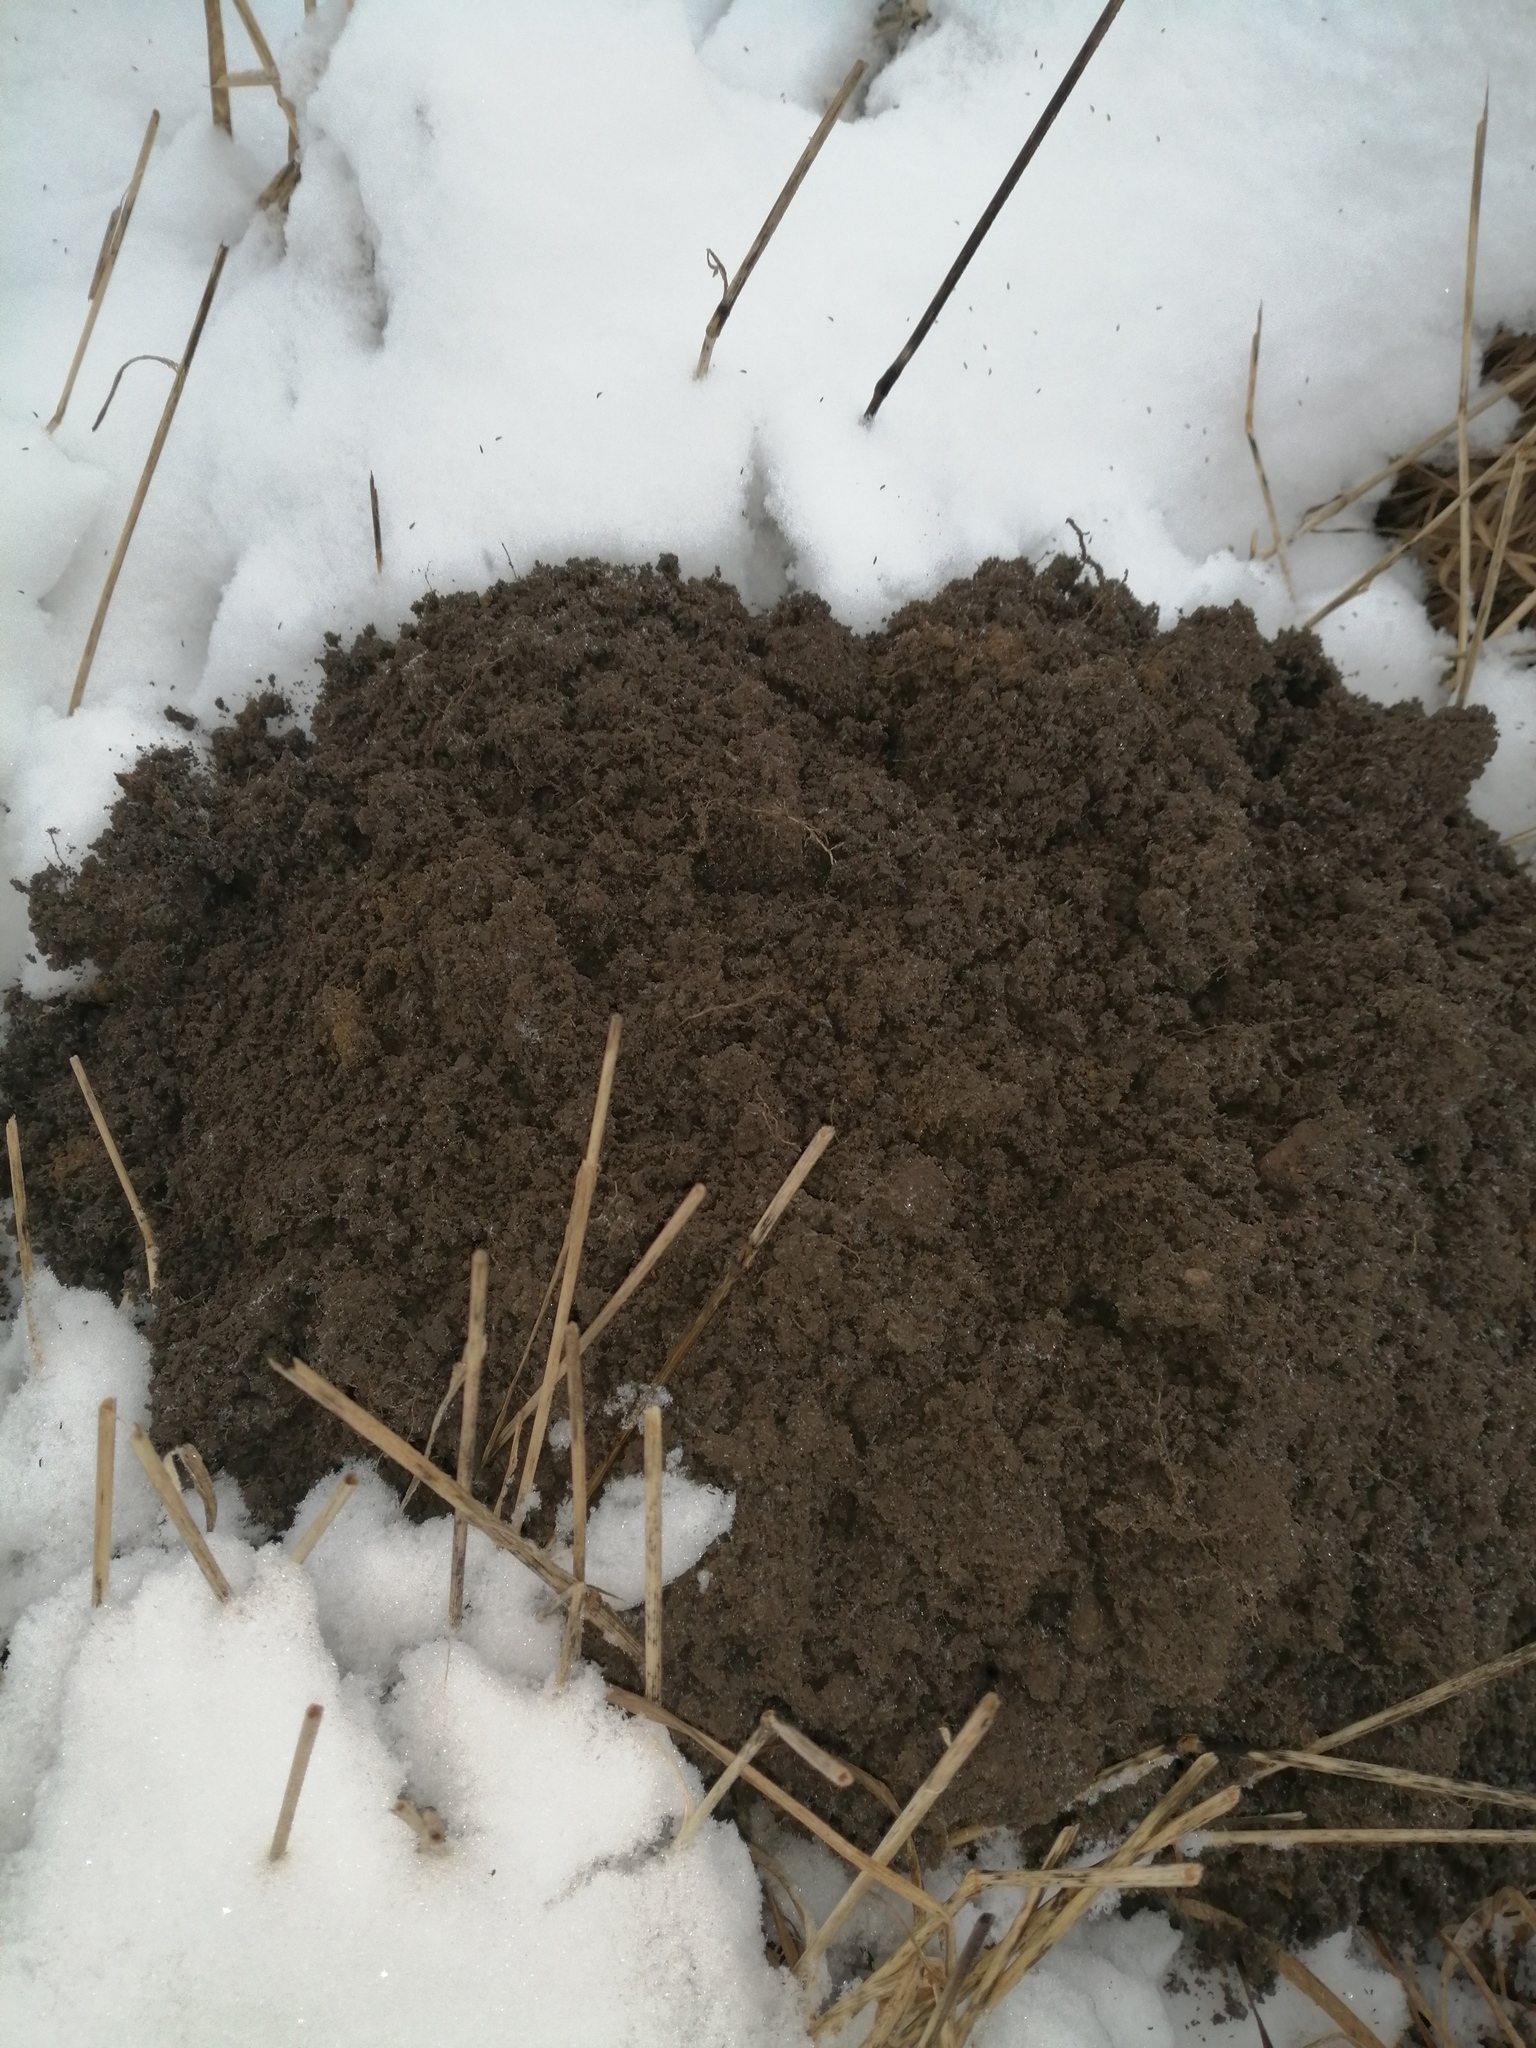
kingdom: Animalia
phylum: Chordata
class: Mammalia
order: Soricomorpha
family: Talpidae
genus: Talpa
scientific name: Talpa europaea
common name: European mole
